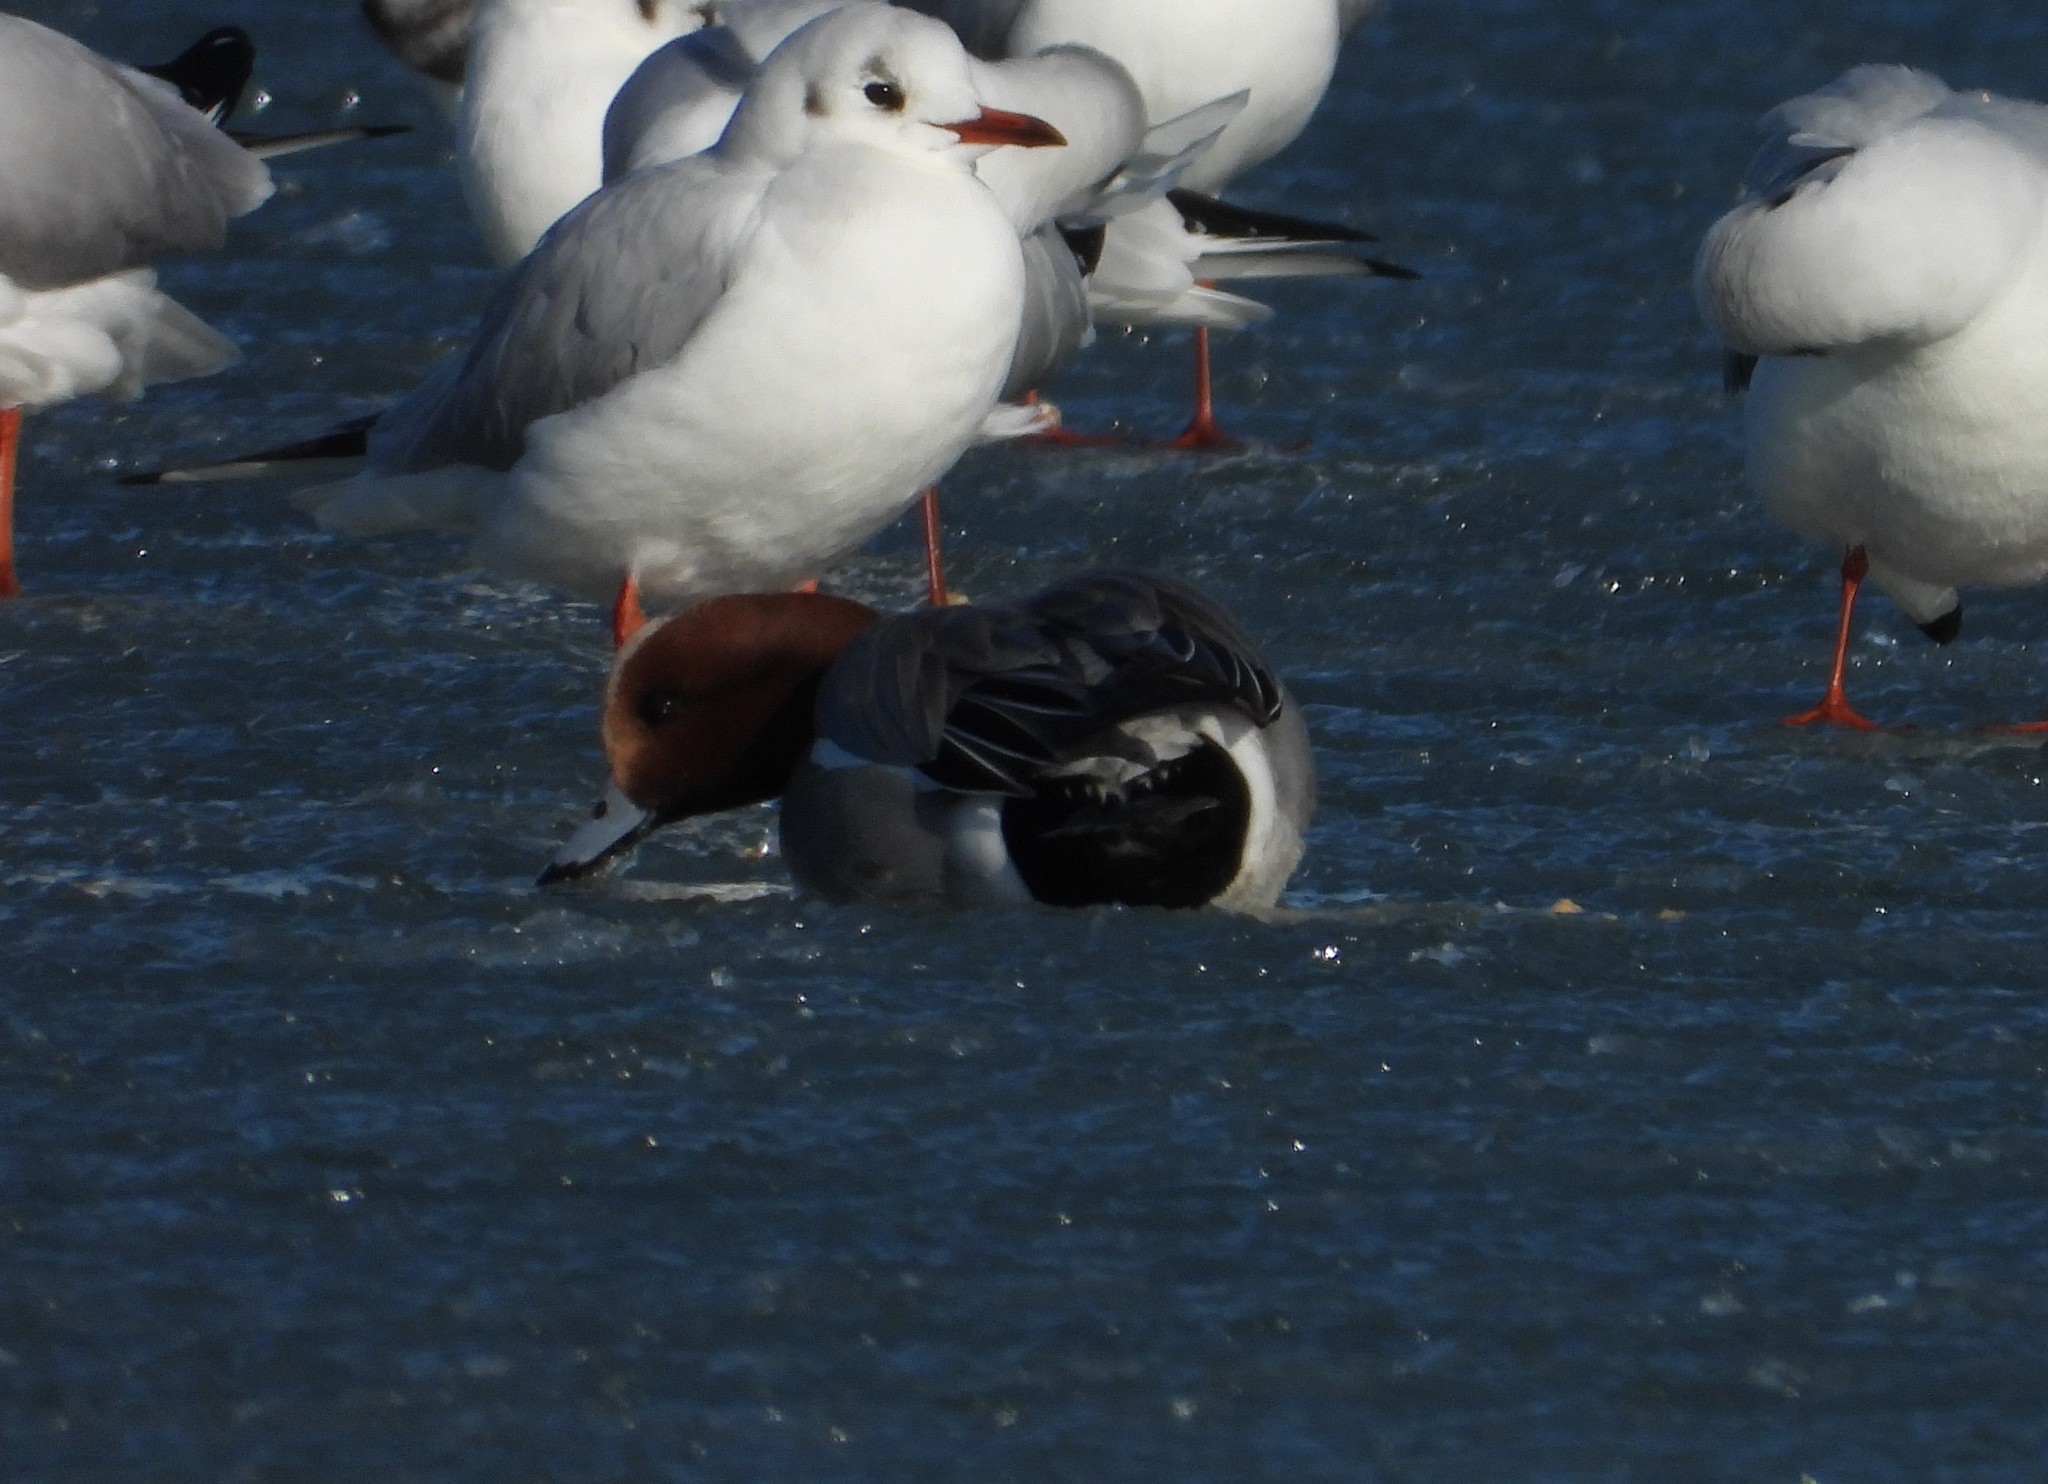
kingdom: Animalia
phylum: Chordata
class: Aves
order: Anseriformes
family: Anatidae
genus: Mareca
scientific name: Mareca penelope
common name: Eurasian wigeon
